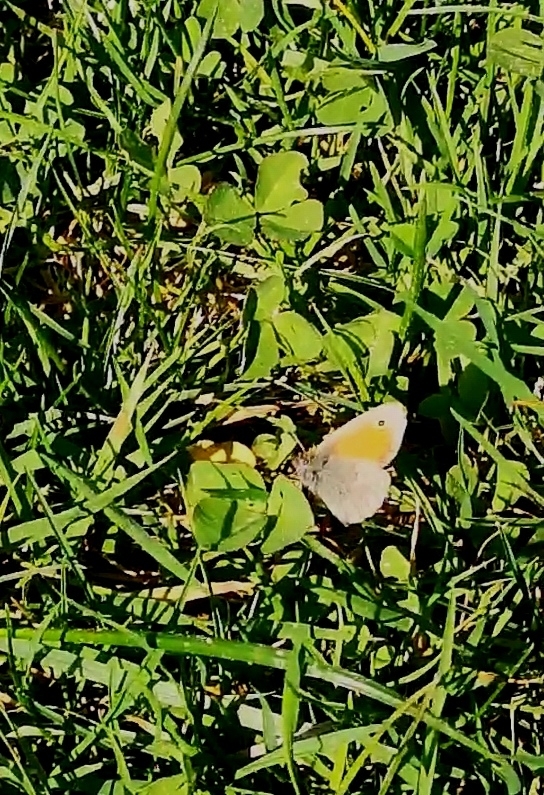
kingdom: Animalia
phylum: Arthropoda
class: Insecta
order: Lepidoptera
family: Nymphalidae
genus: Coenonympha
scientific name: Coenonympha pamphilus
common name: Small heath
